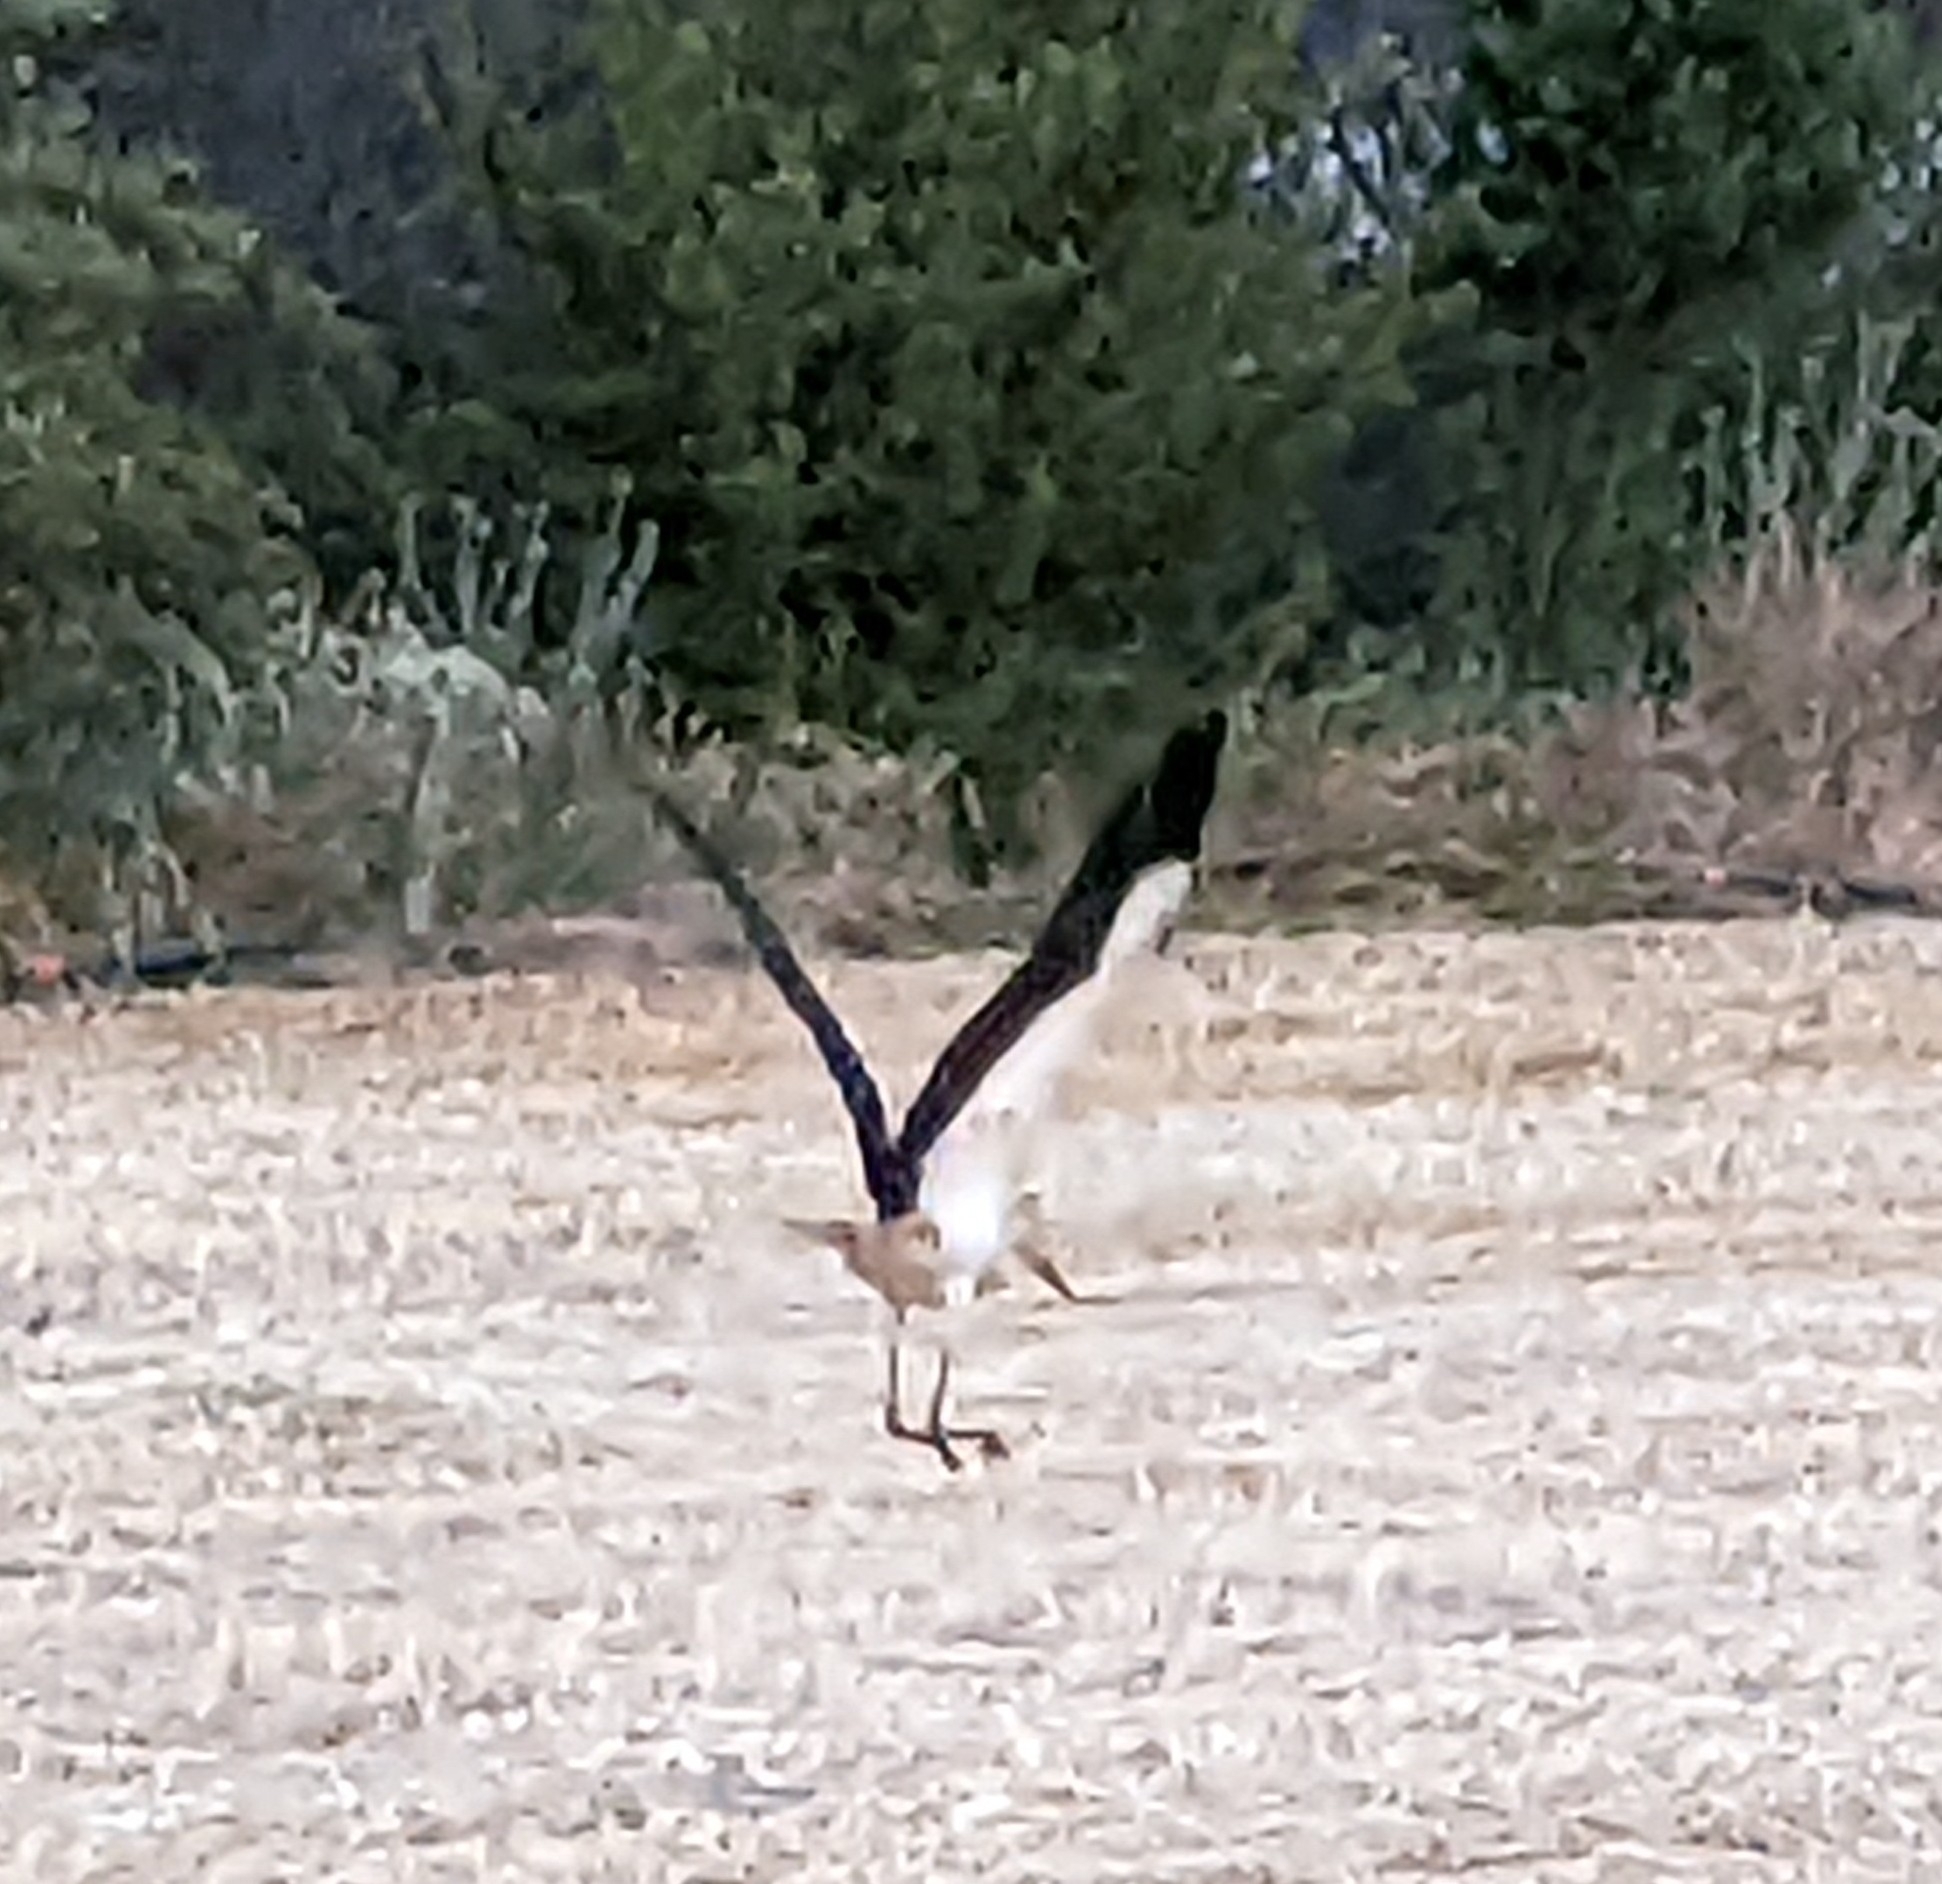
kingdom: Animalia
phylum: Chordata
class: Aves
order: Ciconiiformes
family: Ciconiidae
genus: Ciconia
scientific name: Ciconia ciconia
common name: White stork
